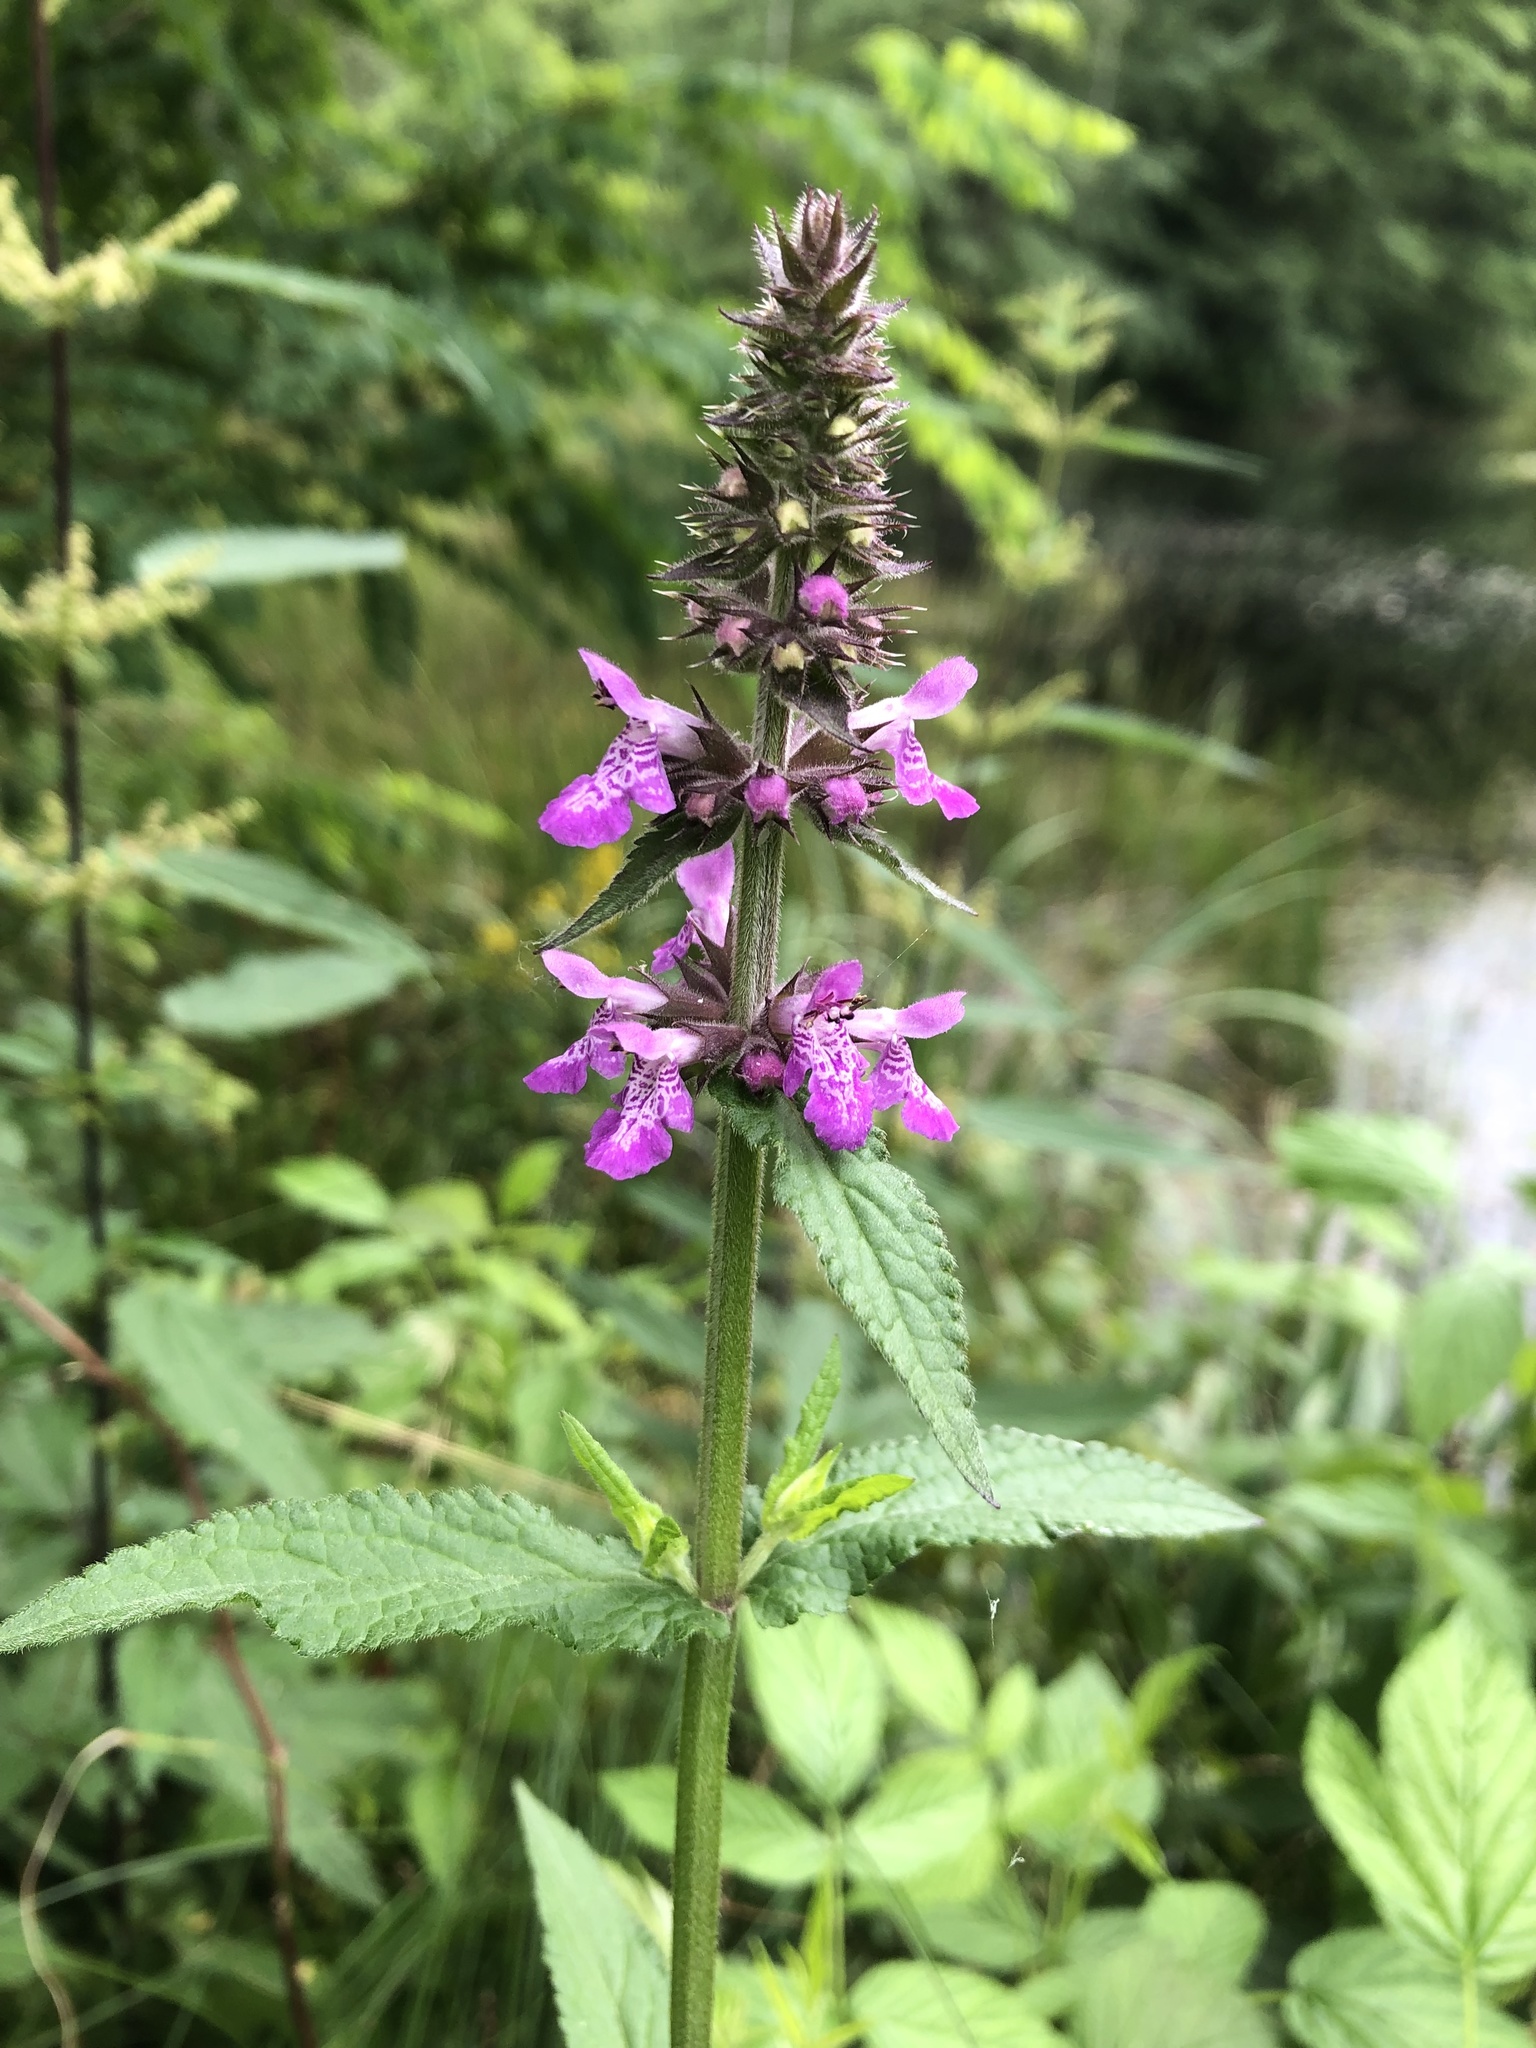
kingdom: Plantae
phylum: Tracheophyta
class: Magnoliopsida
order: Lamiales
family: Lamiaceae
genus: Stachys
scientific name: Stachys palustris
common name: Marsh woundwort
